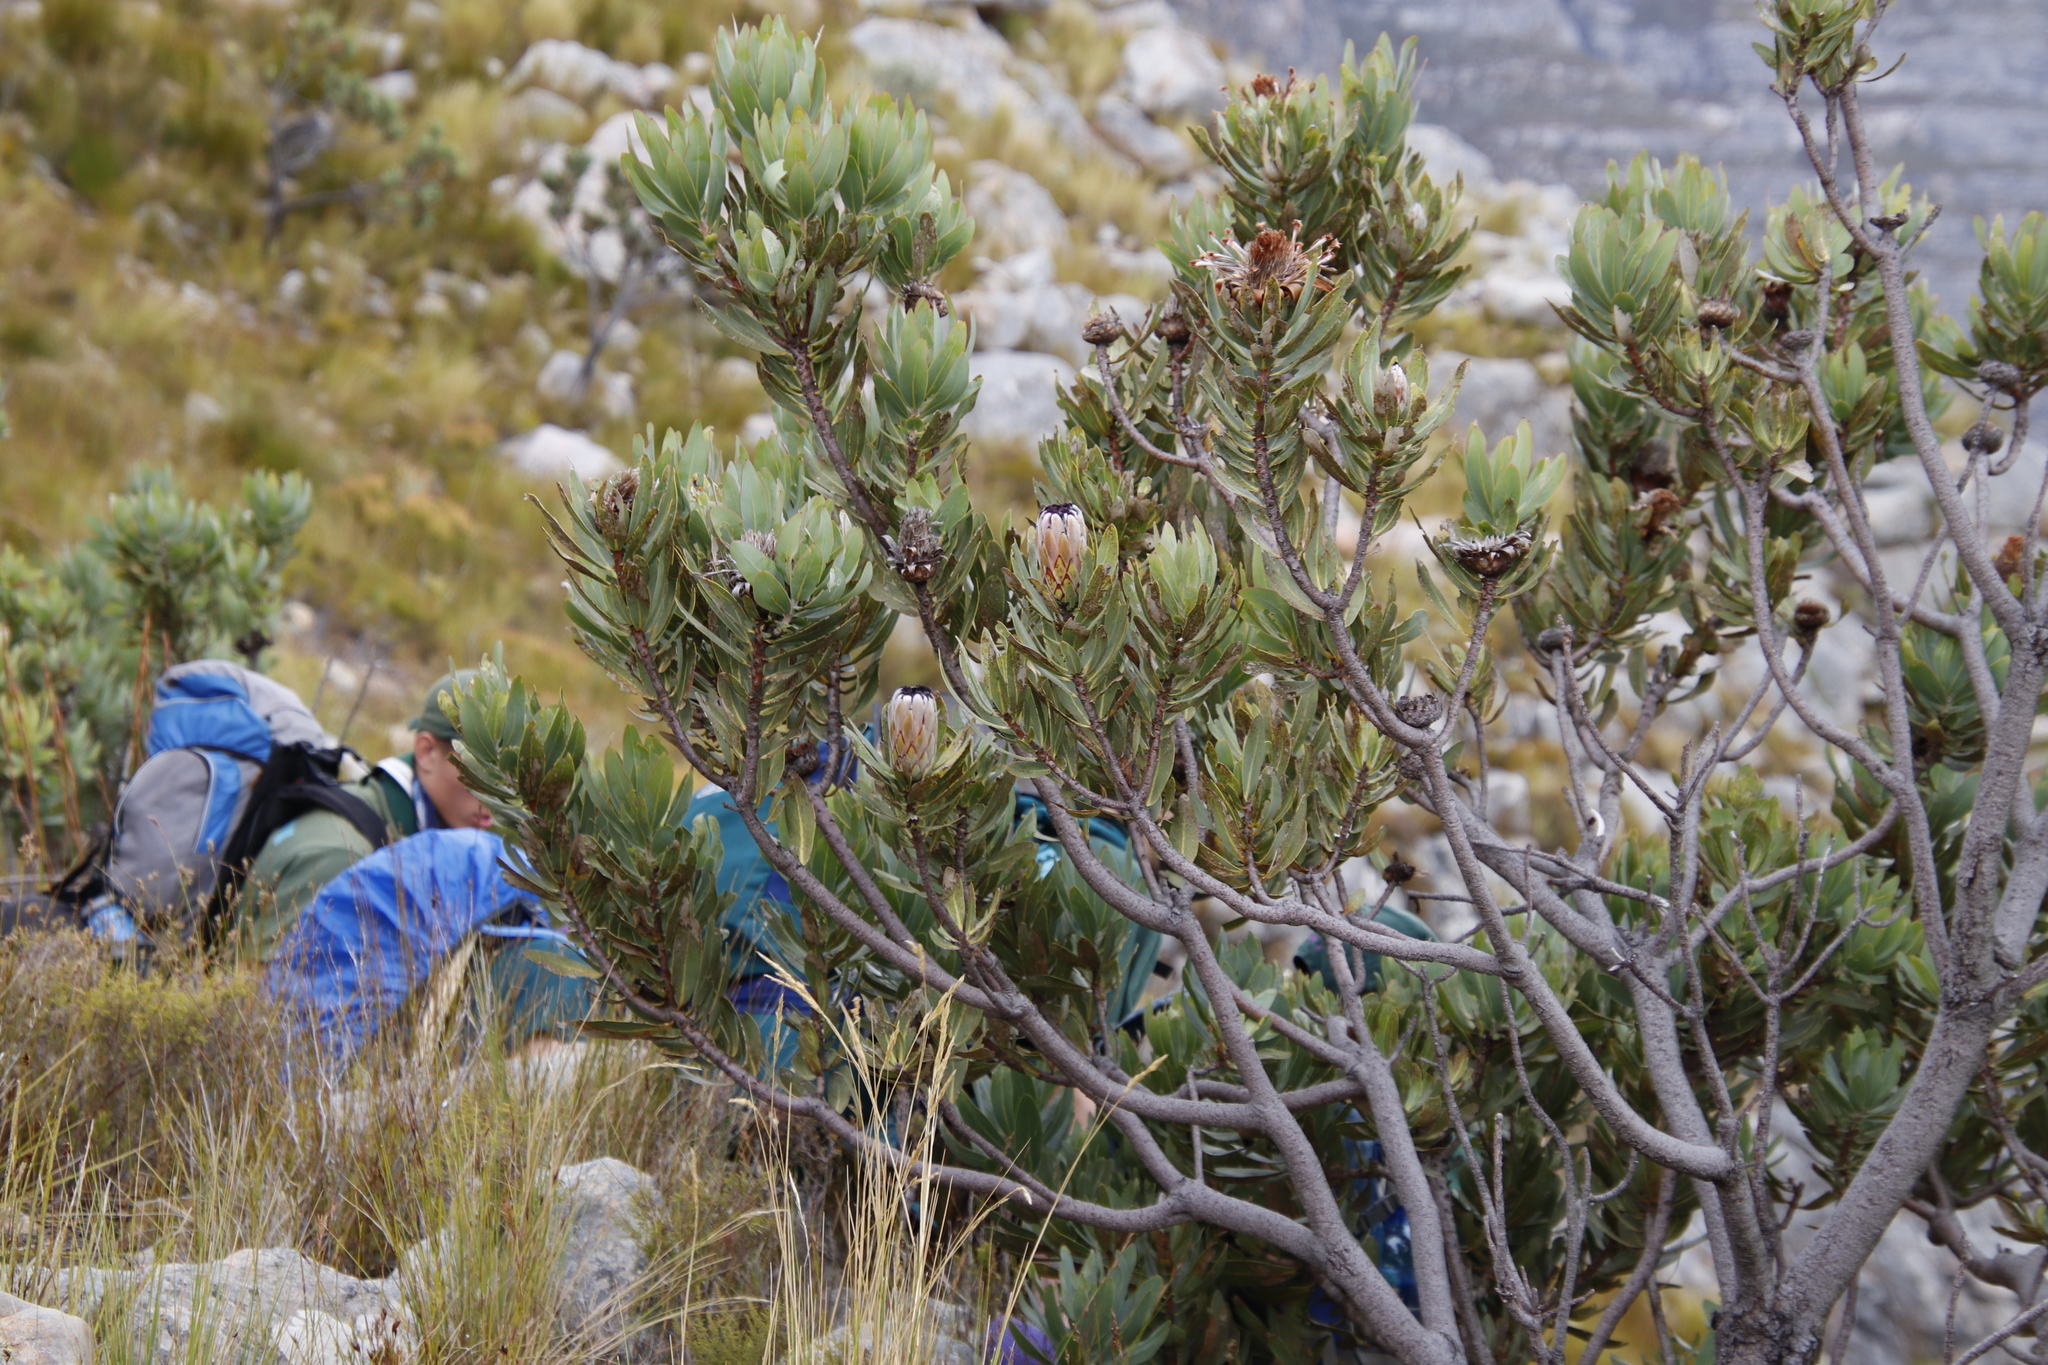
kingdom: Plantae
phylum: Tracheophyta
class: Magnoliopsida
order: Proteales
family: Proteaceae
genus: Protea
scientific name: Protea laurifolia
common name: Grey-leaf sugarbsh
